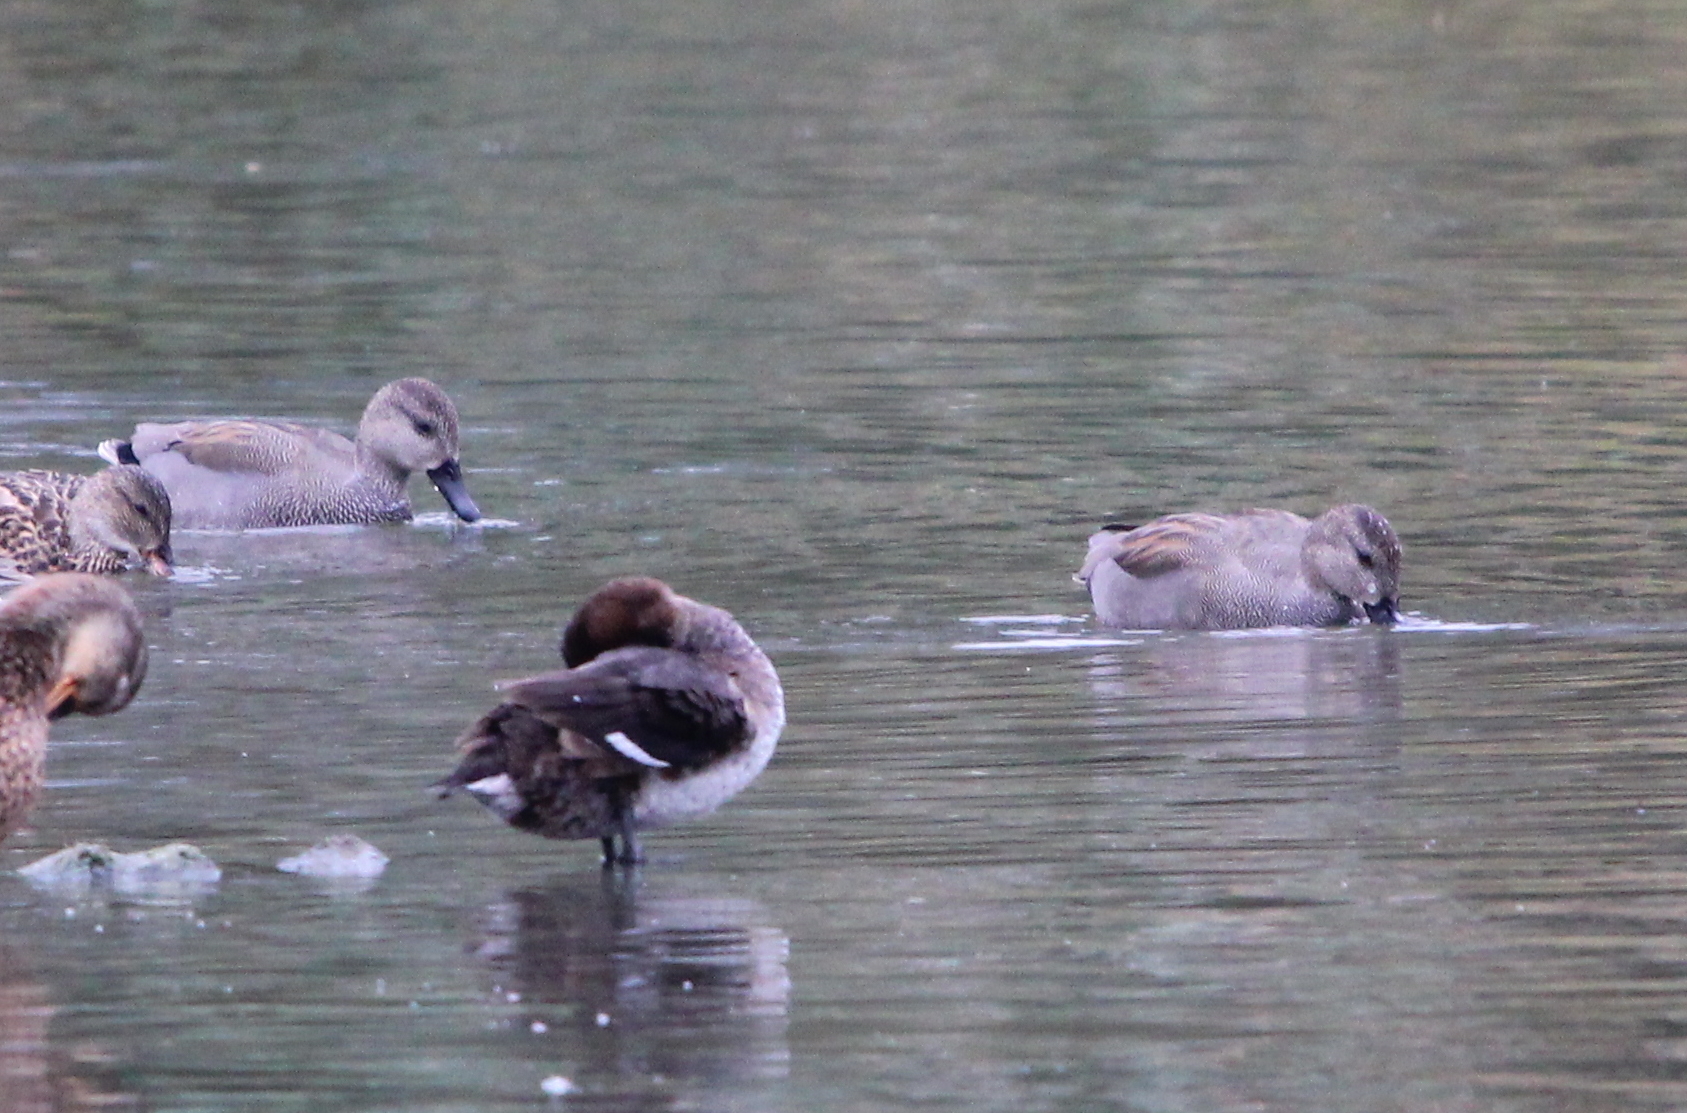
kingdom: Animalia
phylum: Chordata
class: Aves
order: Anseriformes
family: Anatidae
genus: Mareca
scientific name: Mareca strepera
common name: Gadwall
